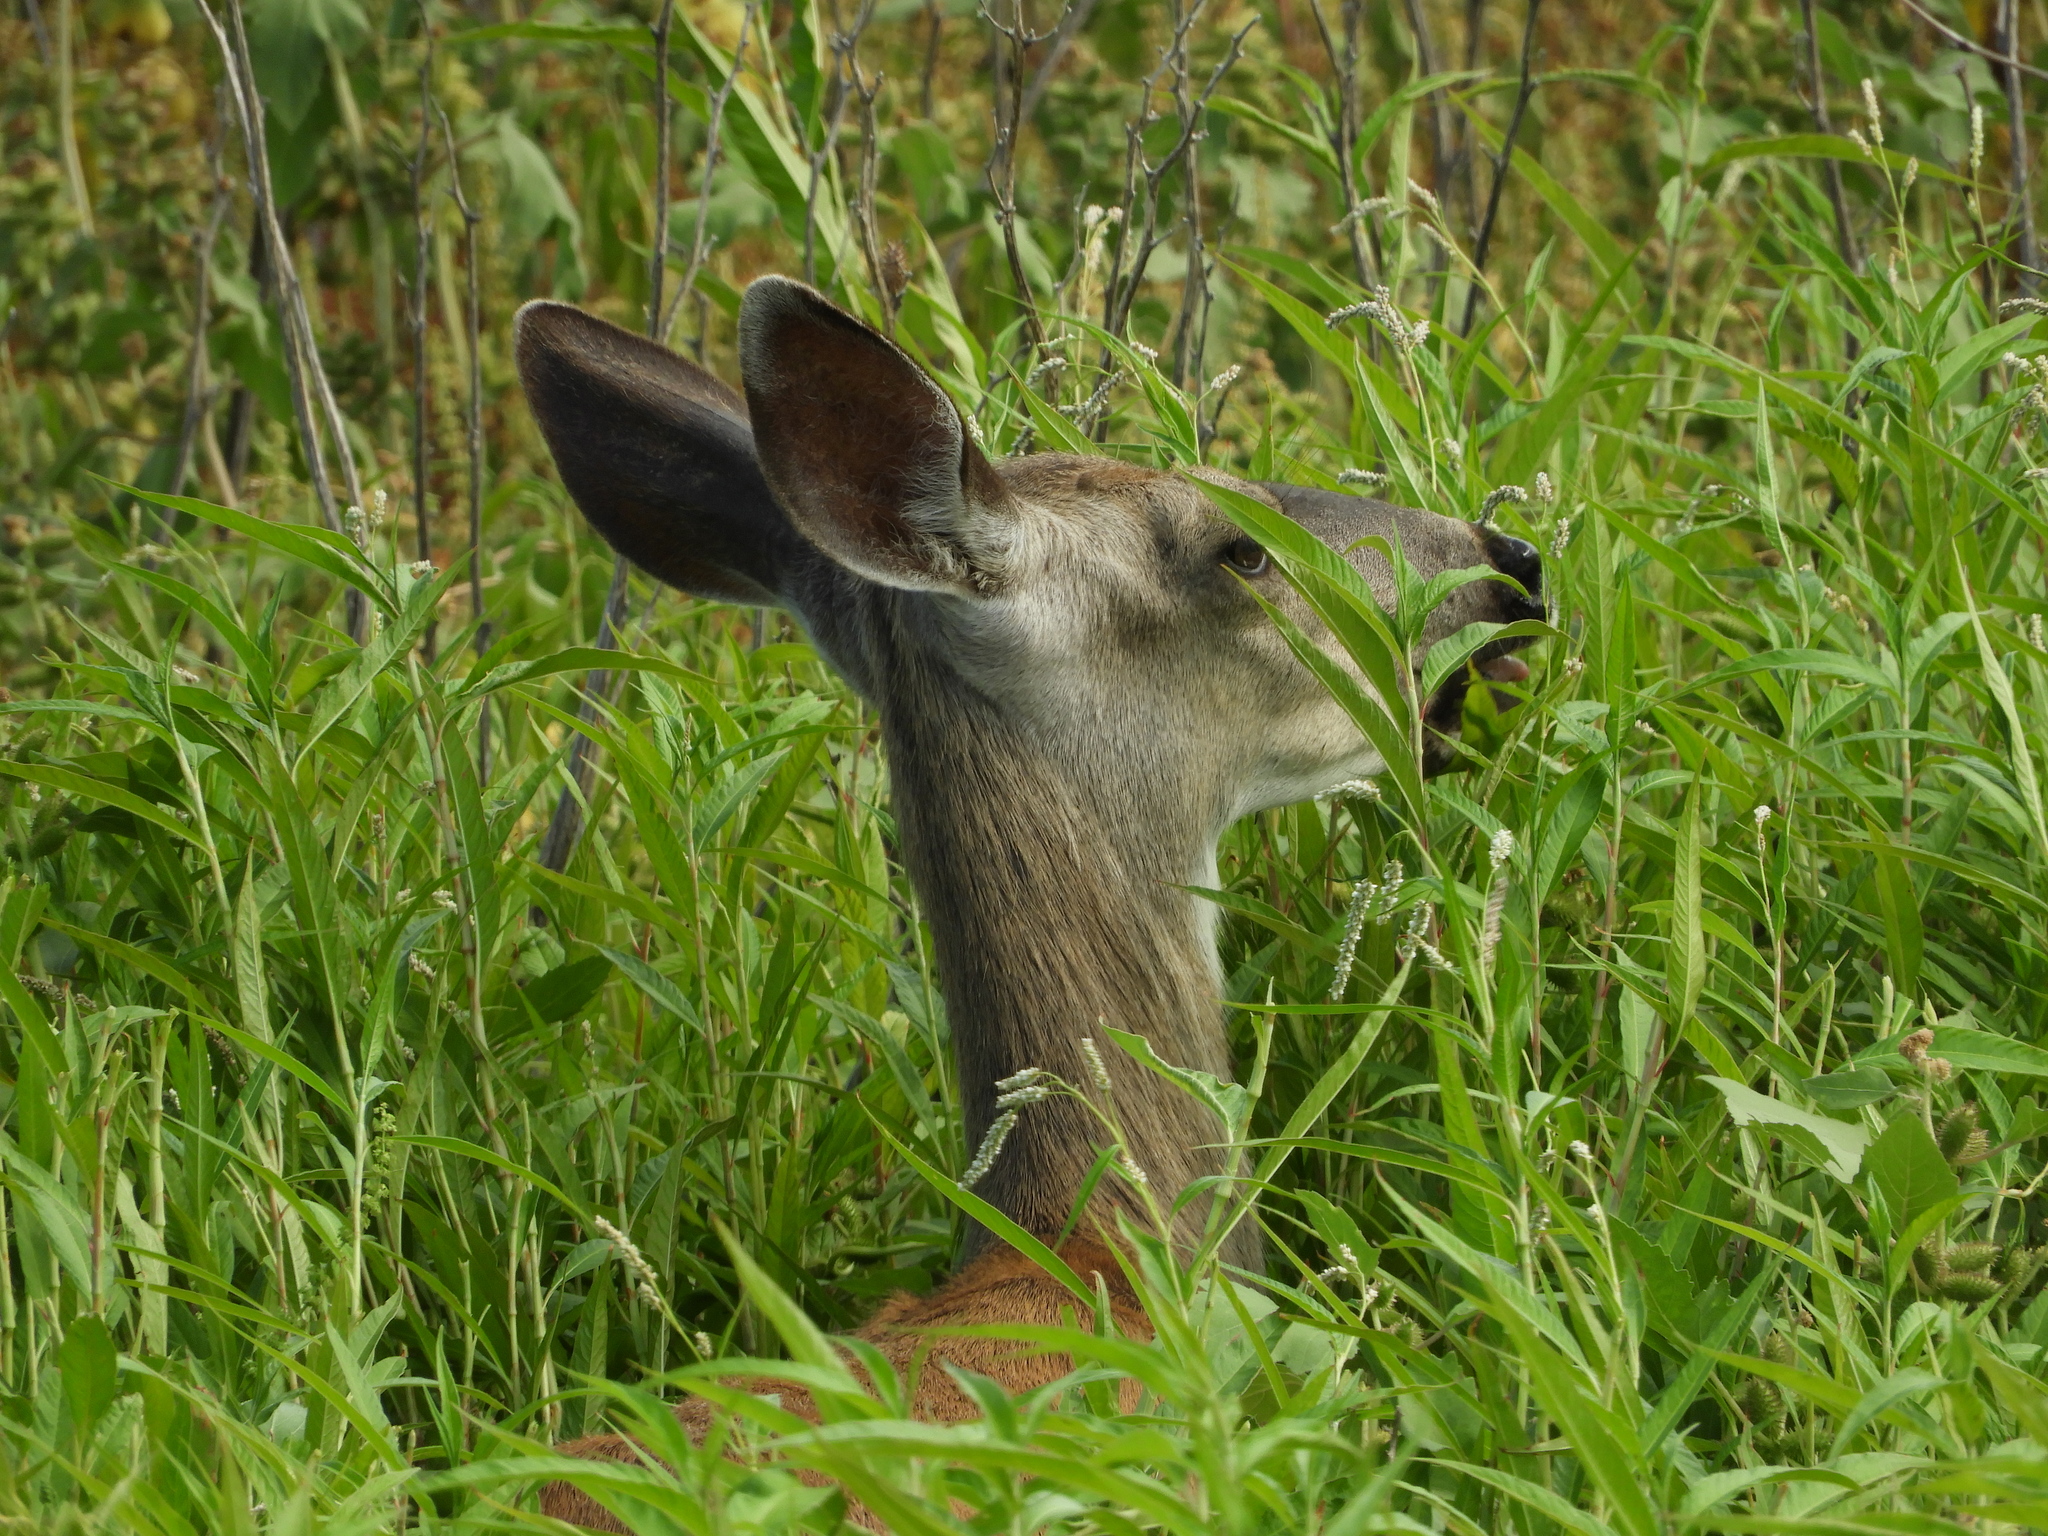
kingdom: Animalia
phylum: Chordata
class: Mammalia
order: Artiodactyla
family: Cervidae
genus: Odocoileus
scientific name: Odocoileus hemionus
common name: Mule deer
